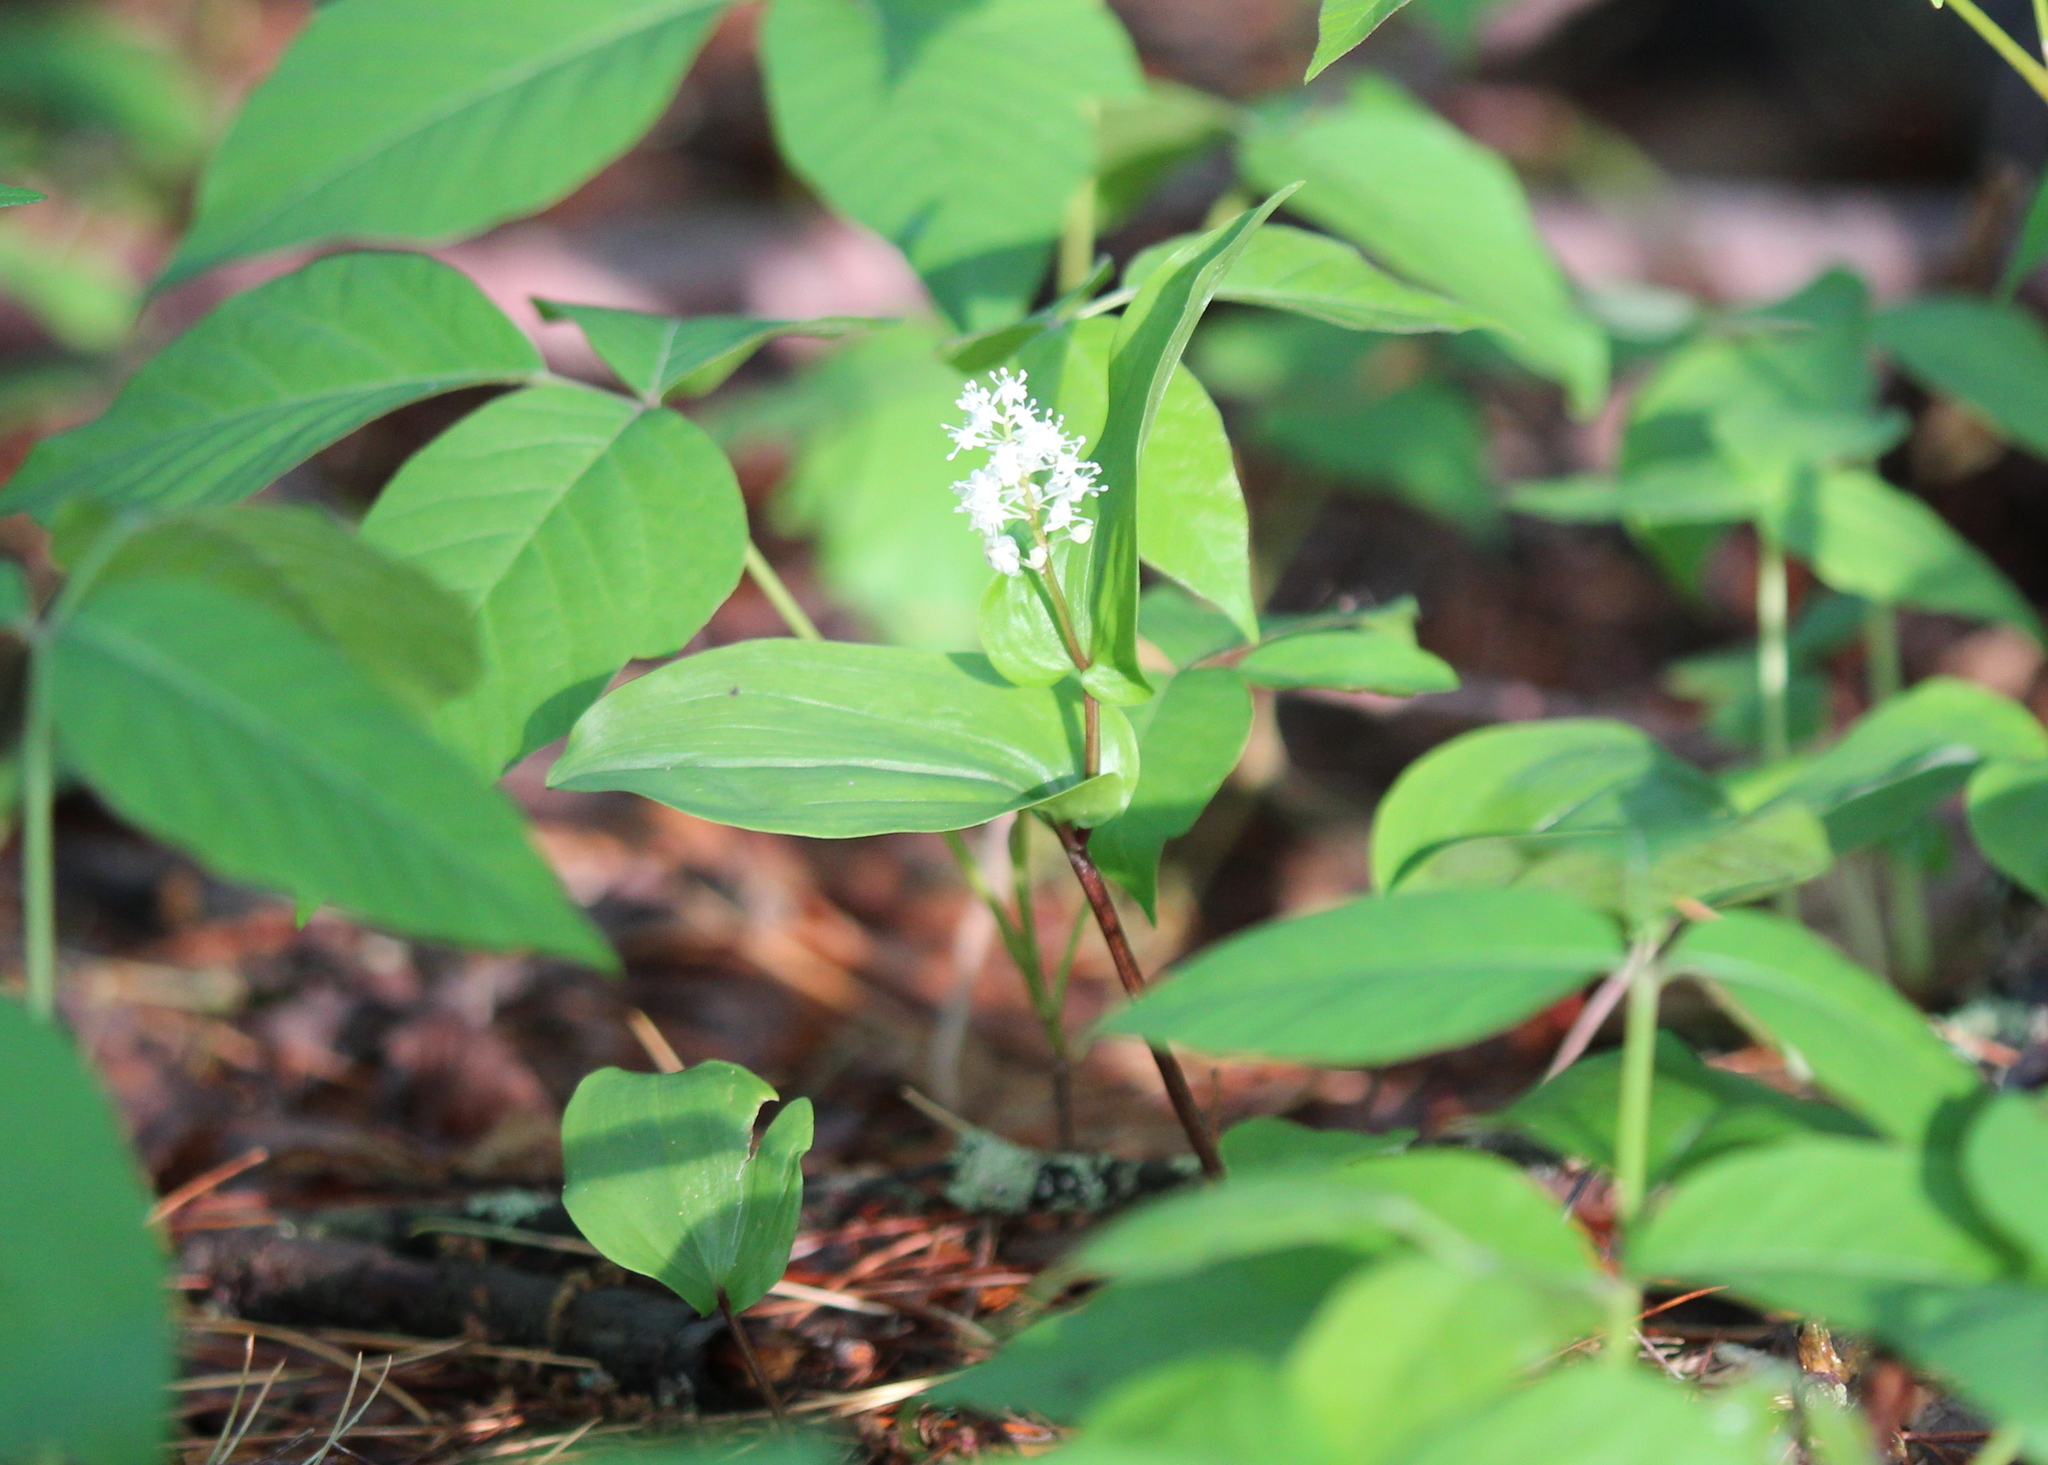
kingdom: Plantae
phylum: Tracheophyta
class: Liliopsida
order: Asparagales
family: Asparagaceae
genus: Maianthemum
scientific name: Maianthemum canadense
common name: False lily-of-the-valley
